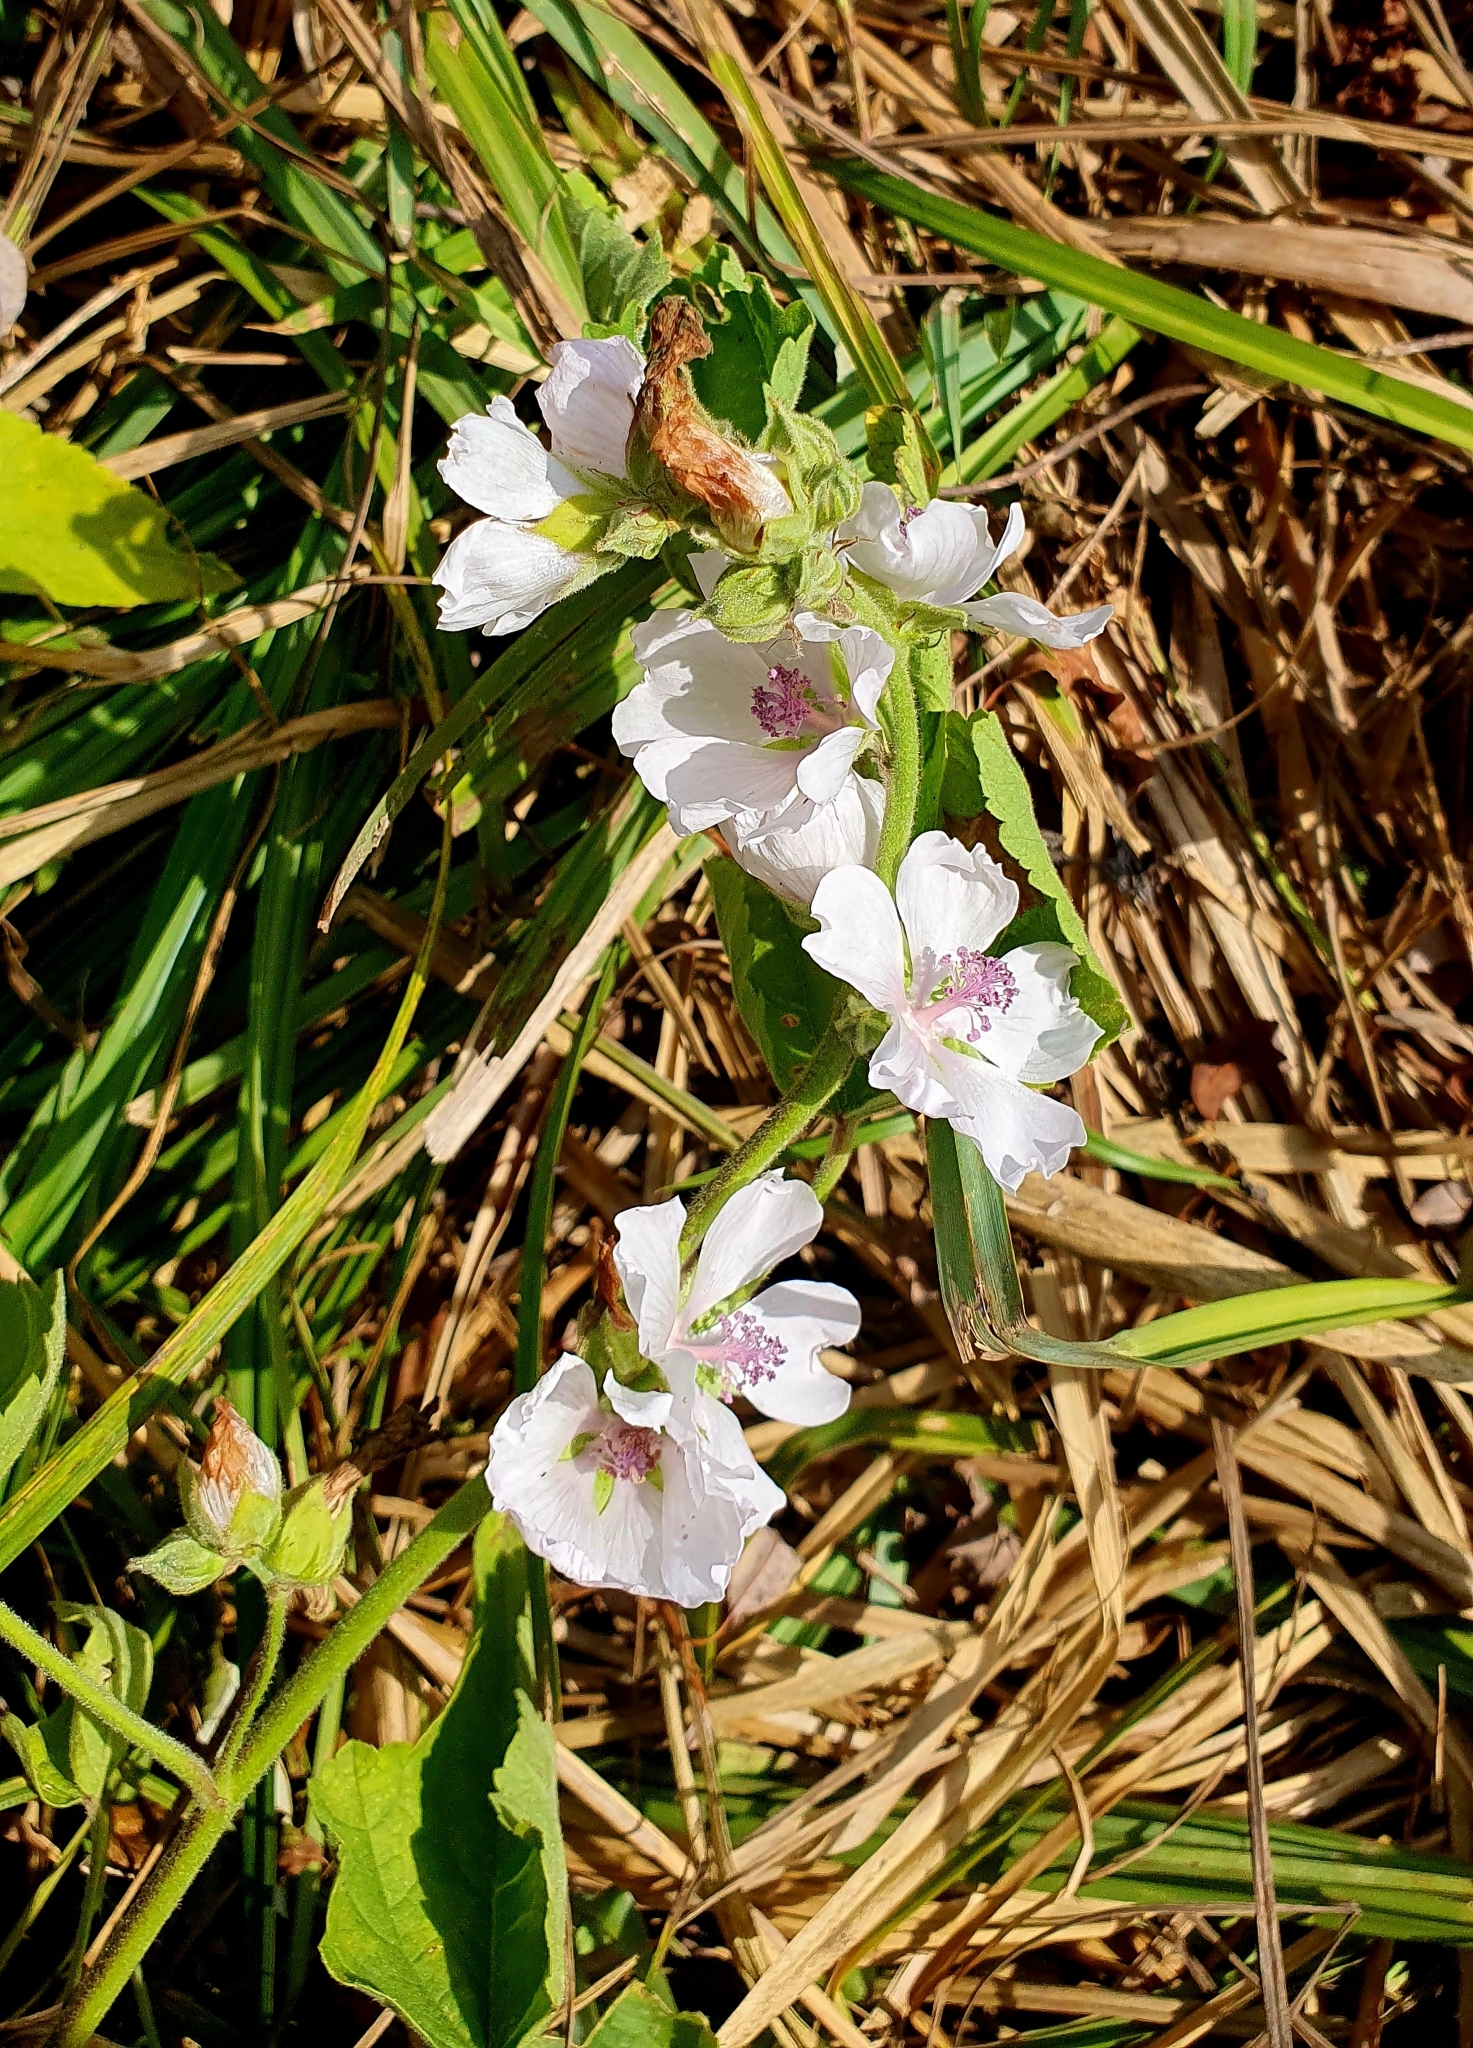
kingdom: Plantae
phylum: Tracheophyta
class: Magnoliopsida
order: Malvales
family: Malvaceae
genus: Althaea
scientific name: Althaea officinalis
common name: Marsh-mallow
